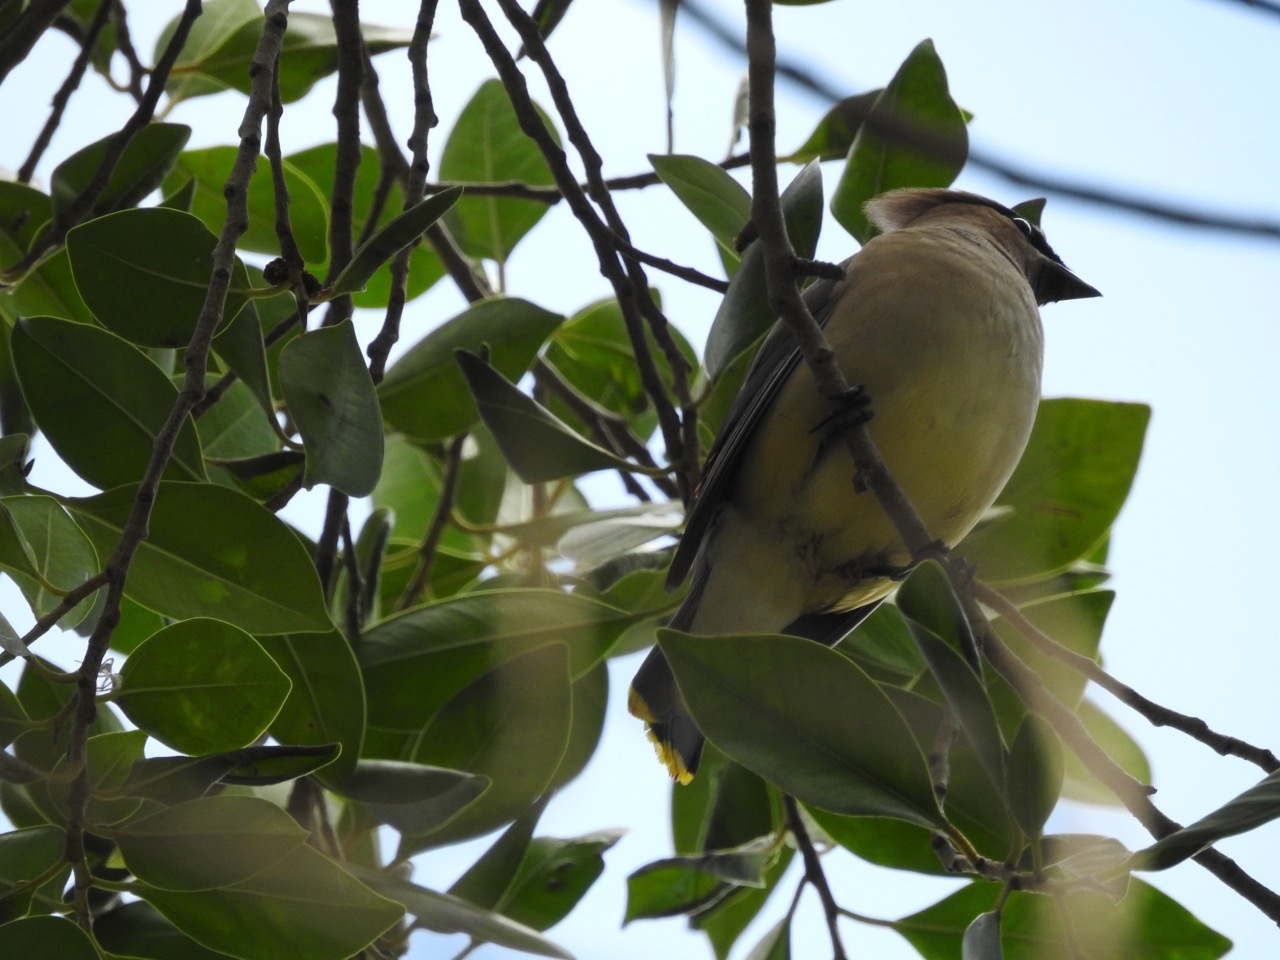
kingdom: Animalia
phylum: Chordata
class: Aves
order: Passeriformes
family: Bombycillidae
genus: Bombycilla
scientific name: Bombycilla cedrorum
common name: Cedar waxwing
